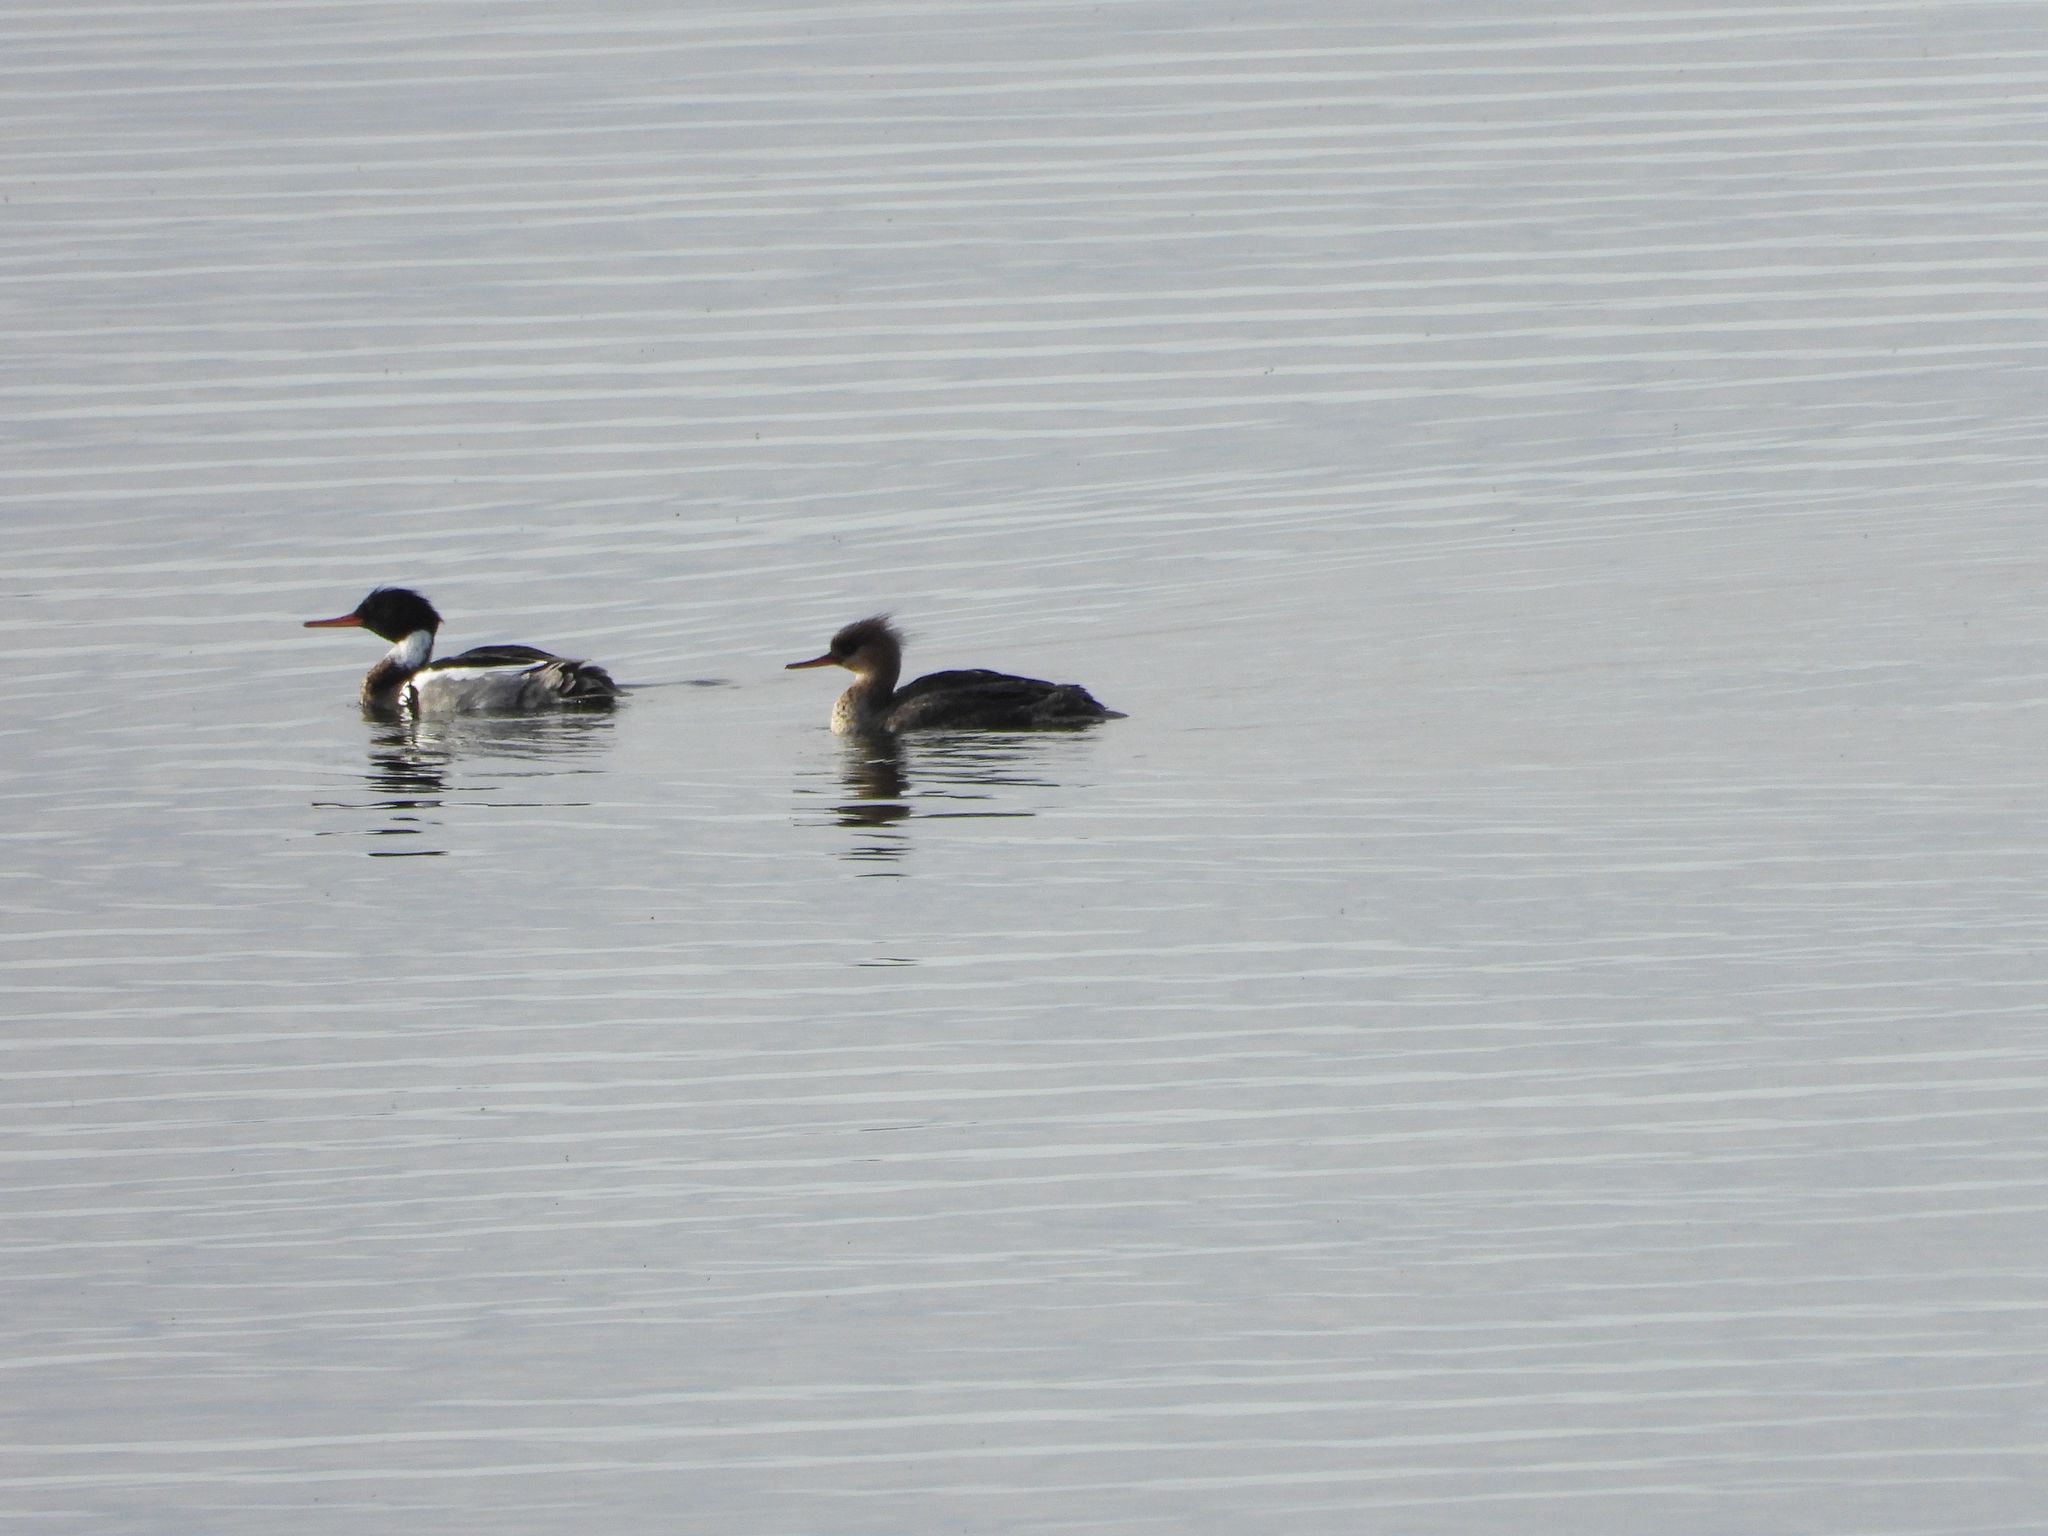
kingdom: Animalia
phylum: Chordata
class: Aves
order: Anseriformes
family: Anatidae
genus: Mergus
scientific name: Mergus serrator
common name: Red-breasted merganser
